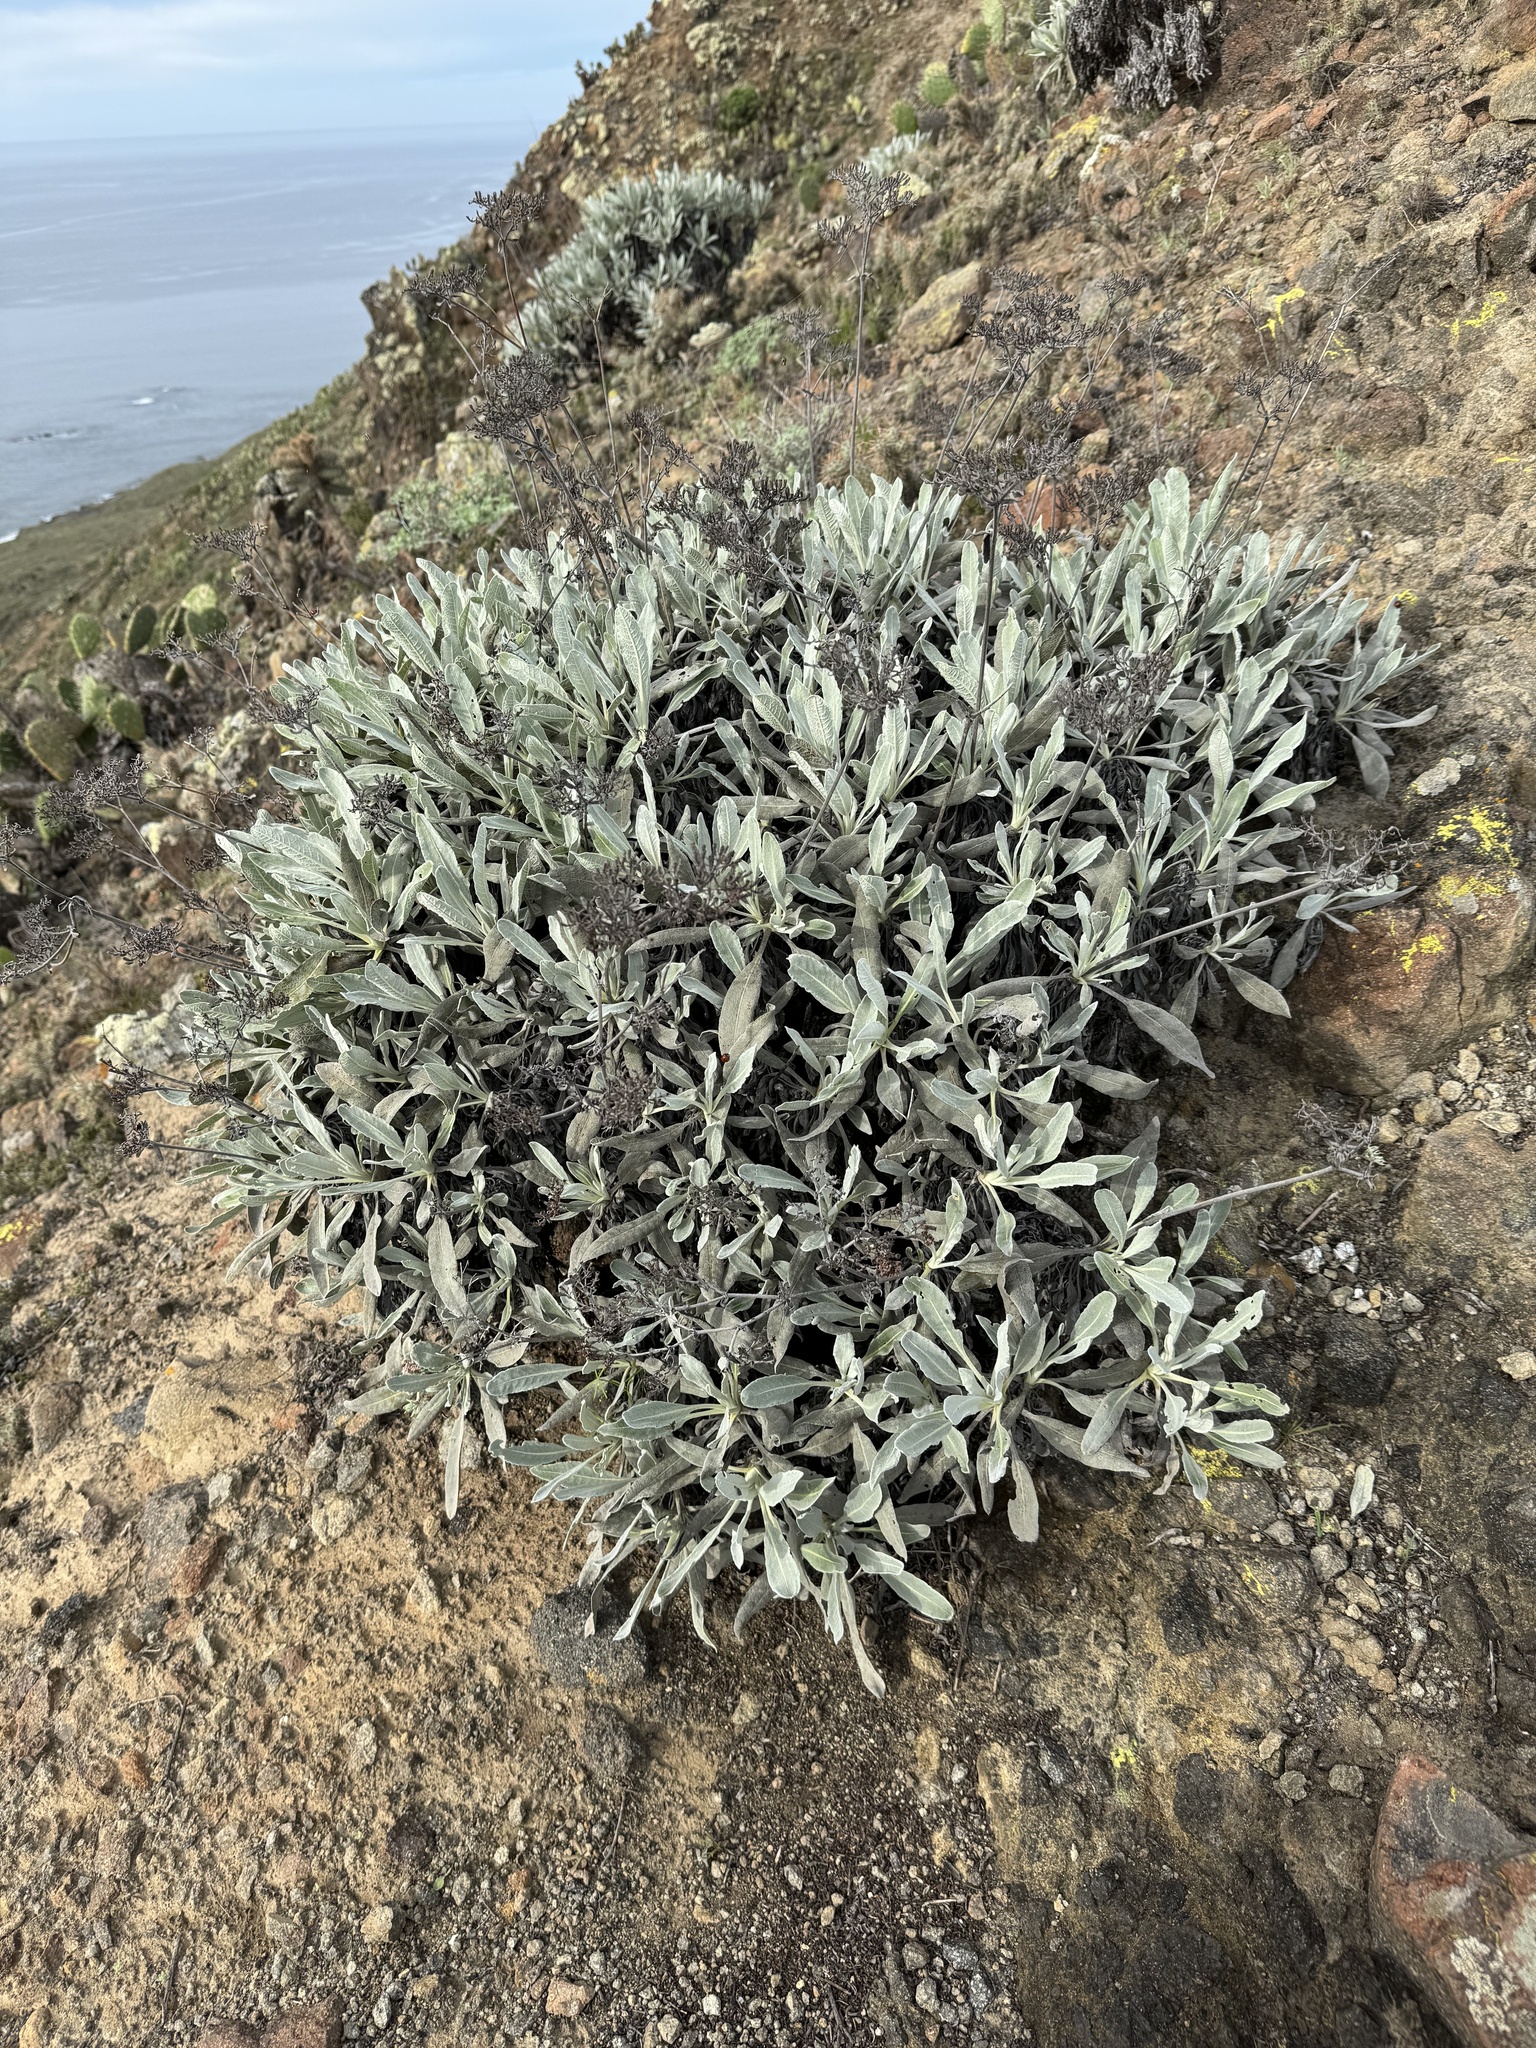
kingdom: Plantae
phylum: Tracheophyta
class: Magnoliopsida
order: Caryophyllales
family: Polygonaceae
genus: Eriogonum
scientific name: Eriogonum giganteum
